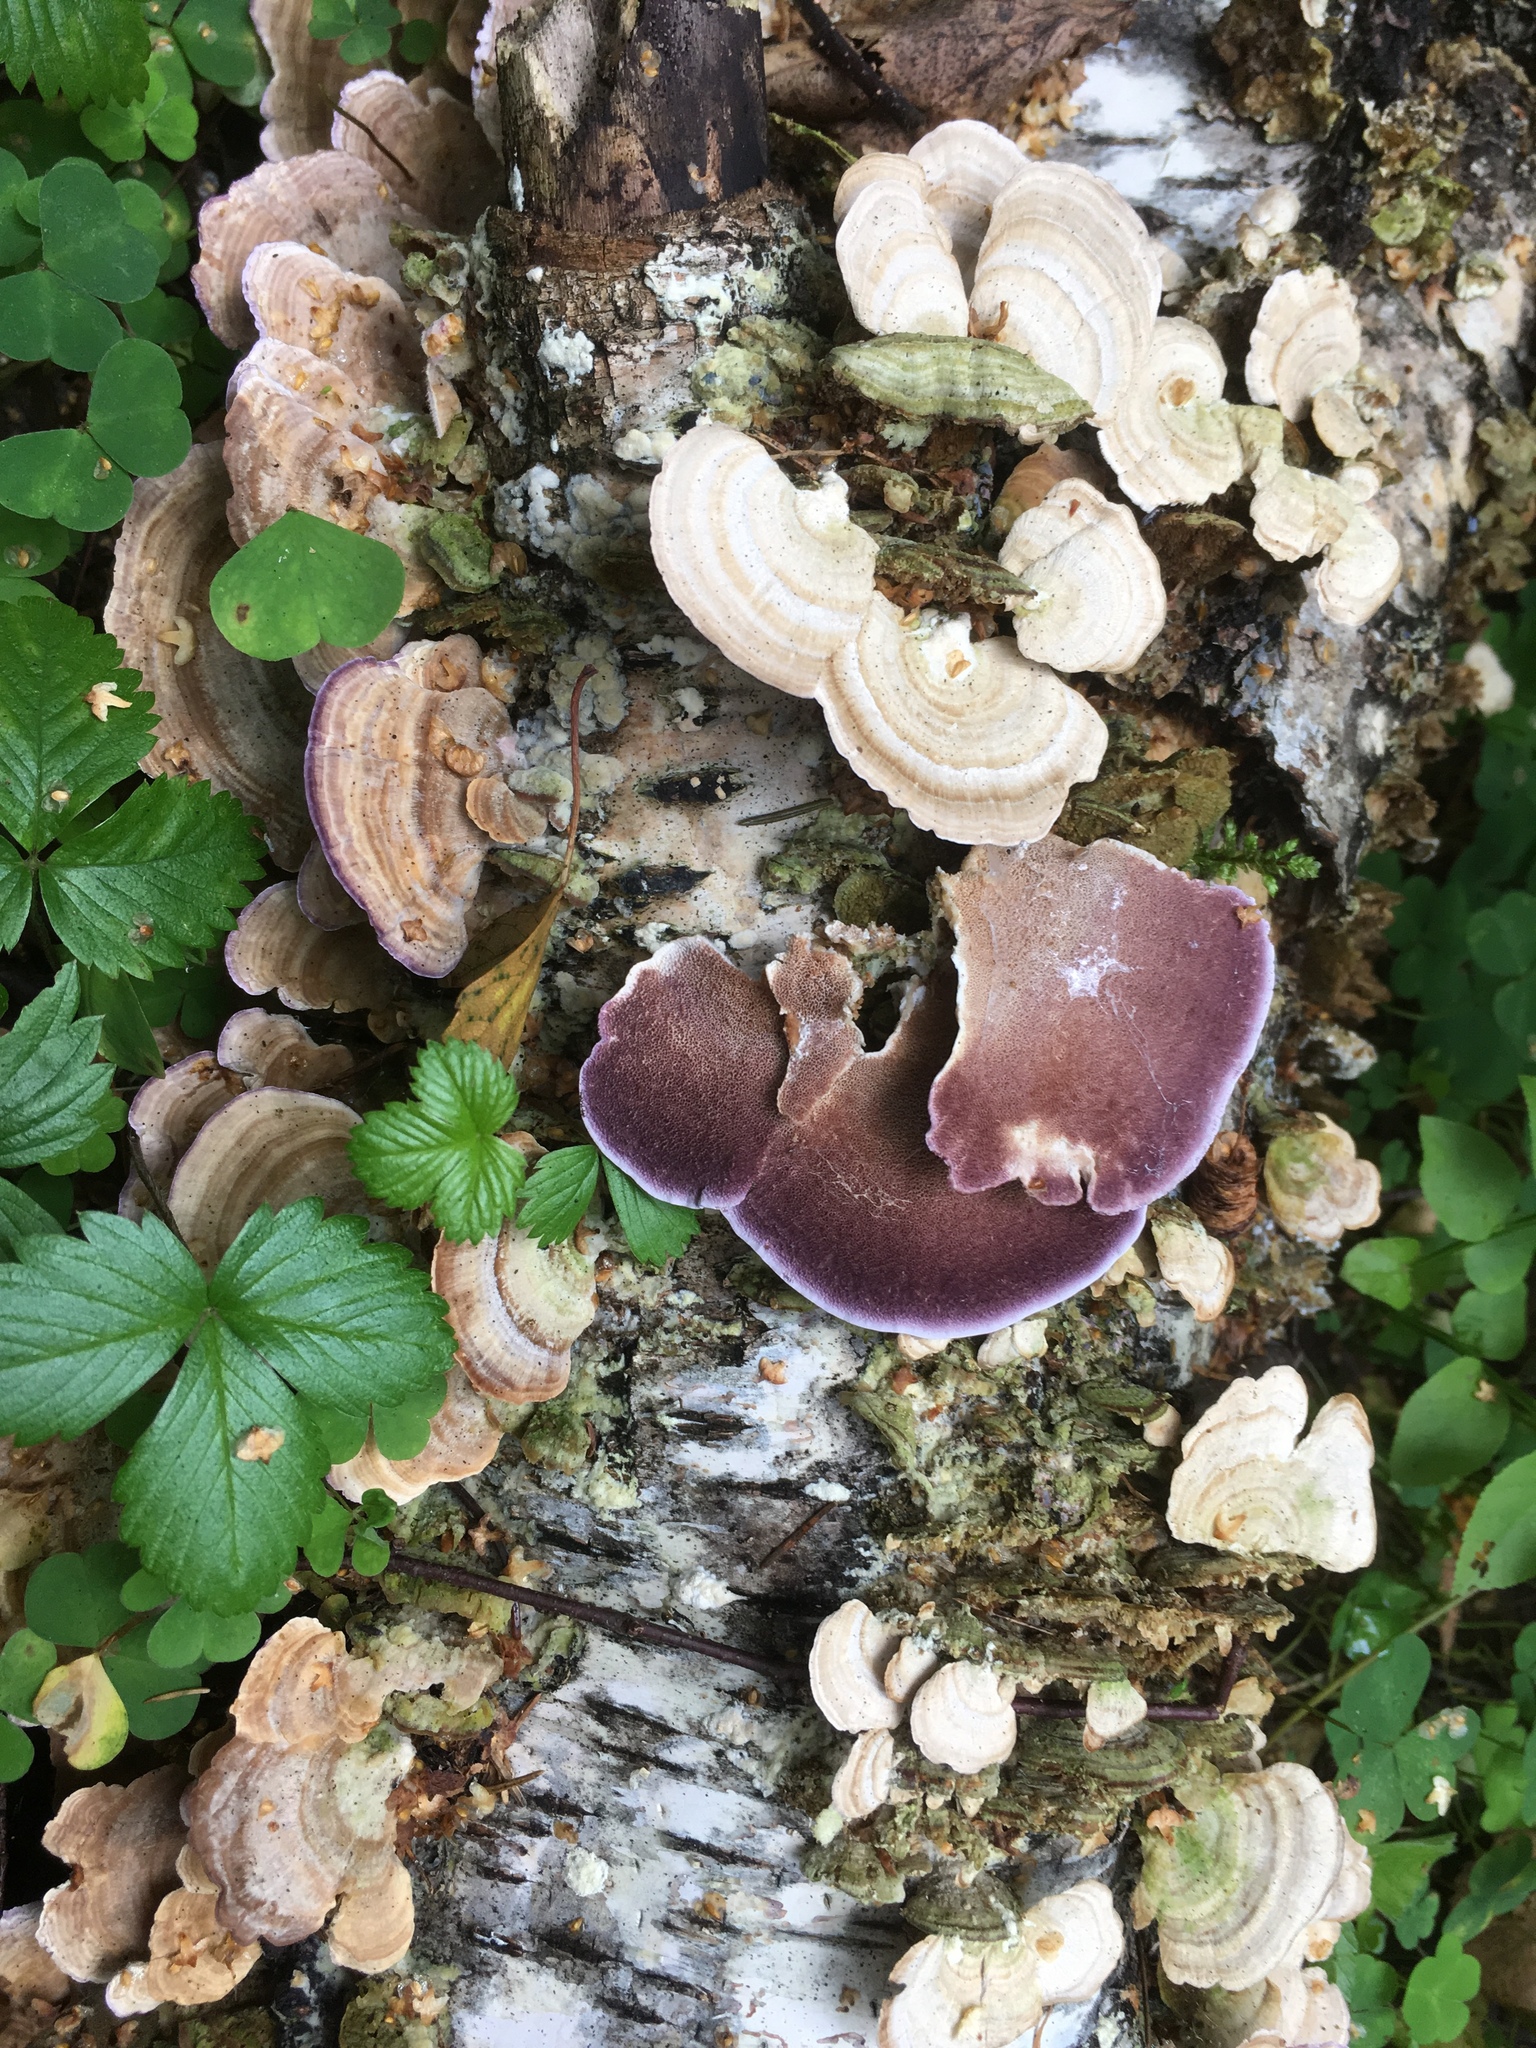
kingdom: Fungi
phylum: Basidiomycota
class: Agaricomycetes
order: Hymenochaetales
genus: Trichaptum
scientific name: Trichaptum biforme
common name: Violet-toothed polypore
